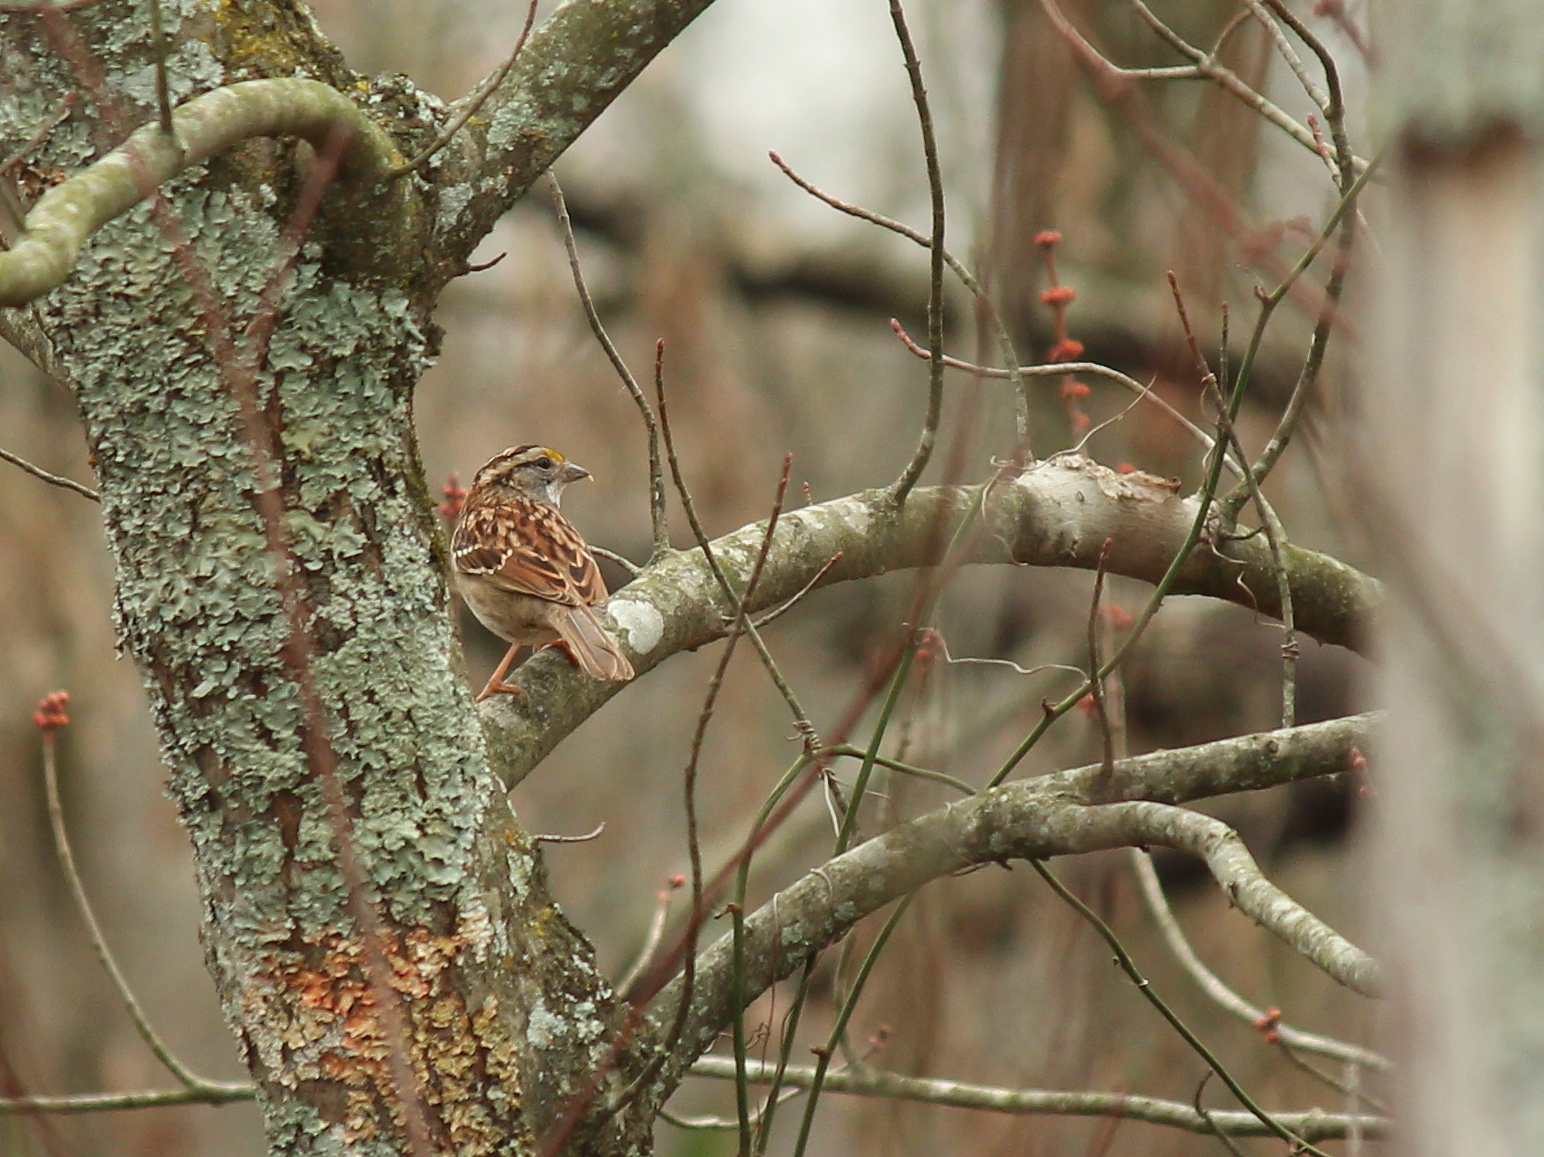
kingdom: Animalia
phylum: Chordata
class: Aves
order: Passeriformes
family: Passerellidae
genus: Zonotrichia
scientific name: Zonotrichia albicollis
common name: White-throated sparrow
